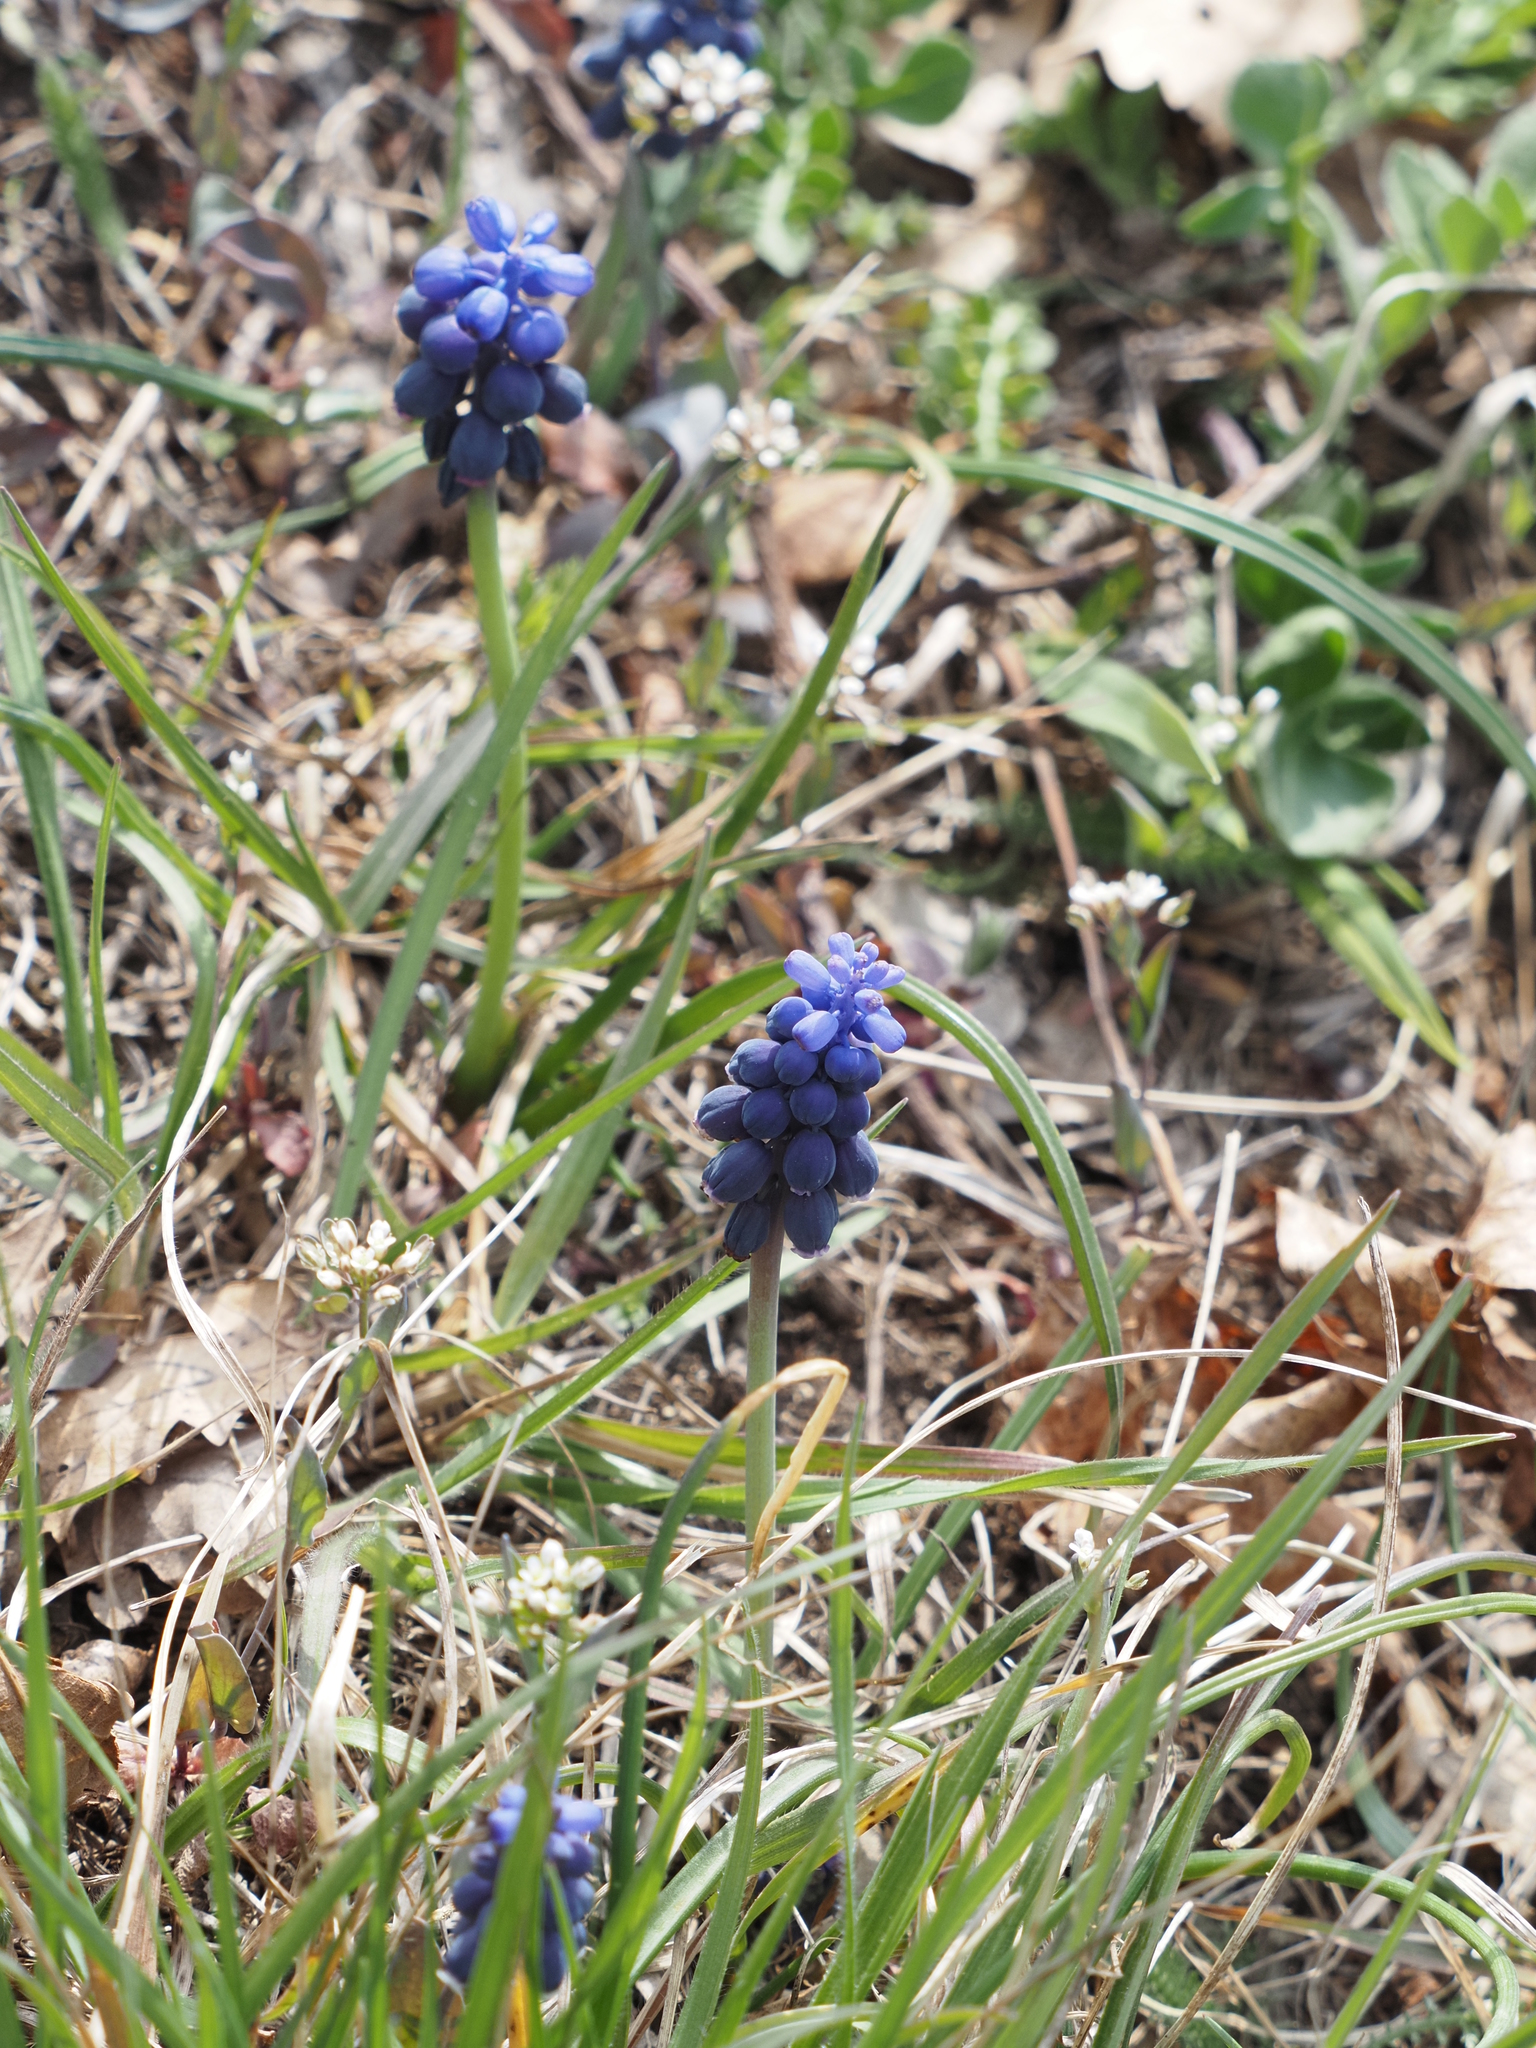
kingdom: Plantae
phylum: Tracheophyta
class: Liliopsida
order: Asparagales
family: Asparagaceae
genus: Muscari
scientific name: Muscari neglectum
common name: Grape-hyacinth
